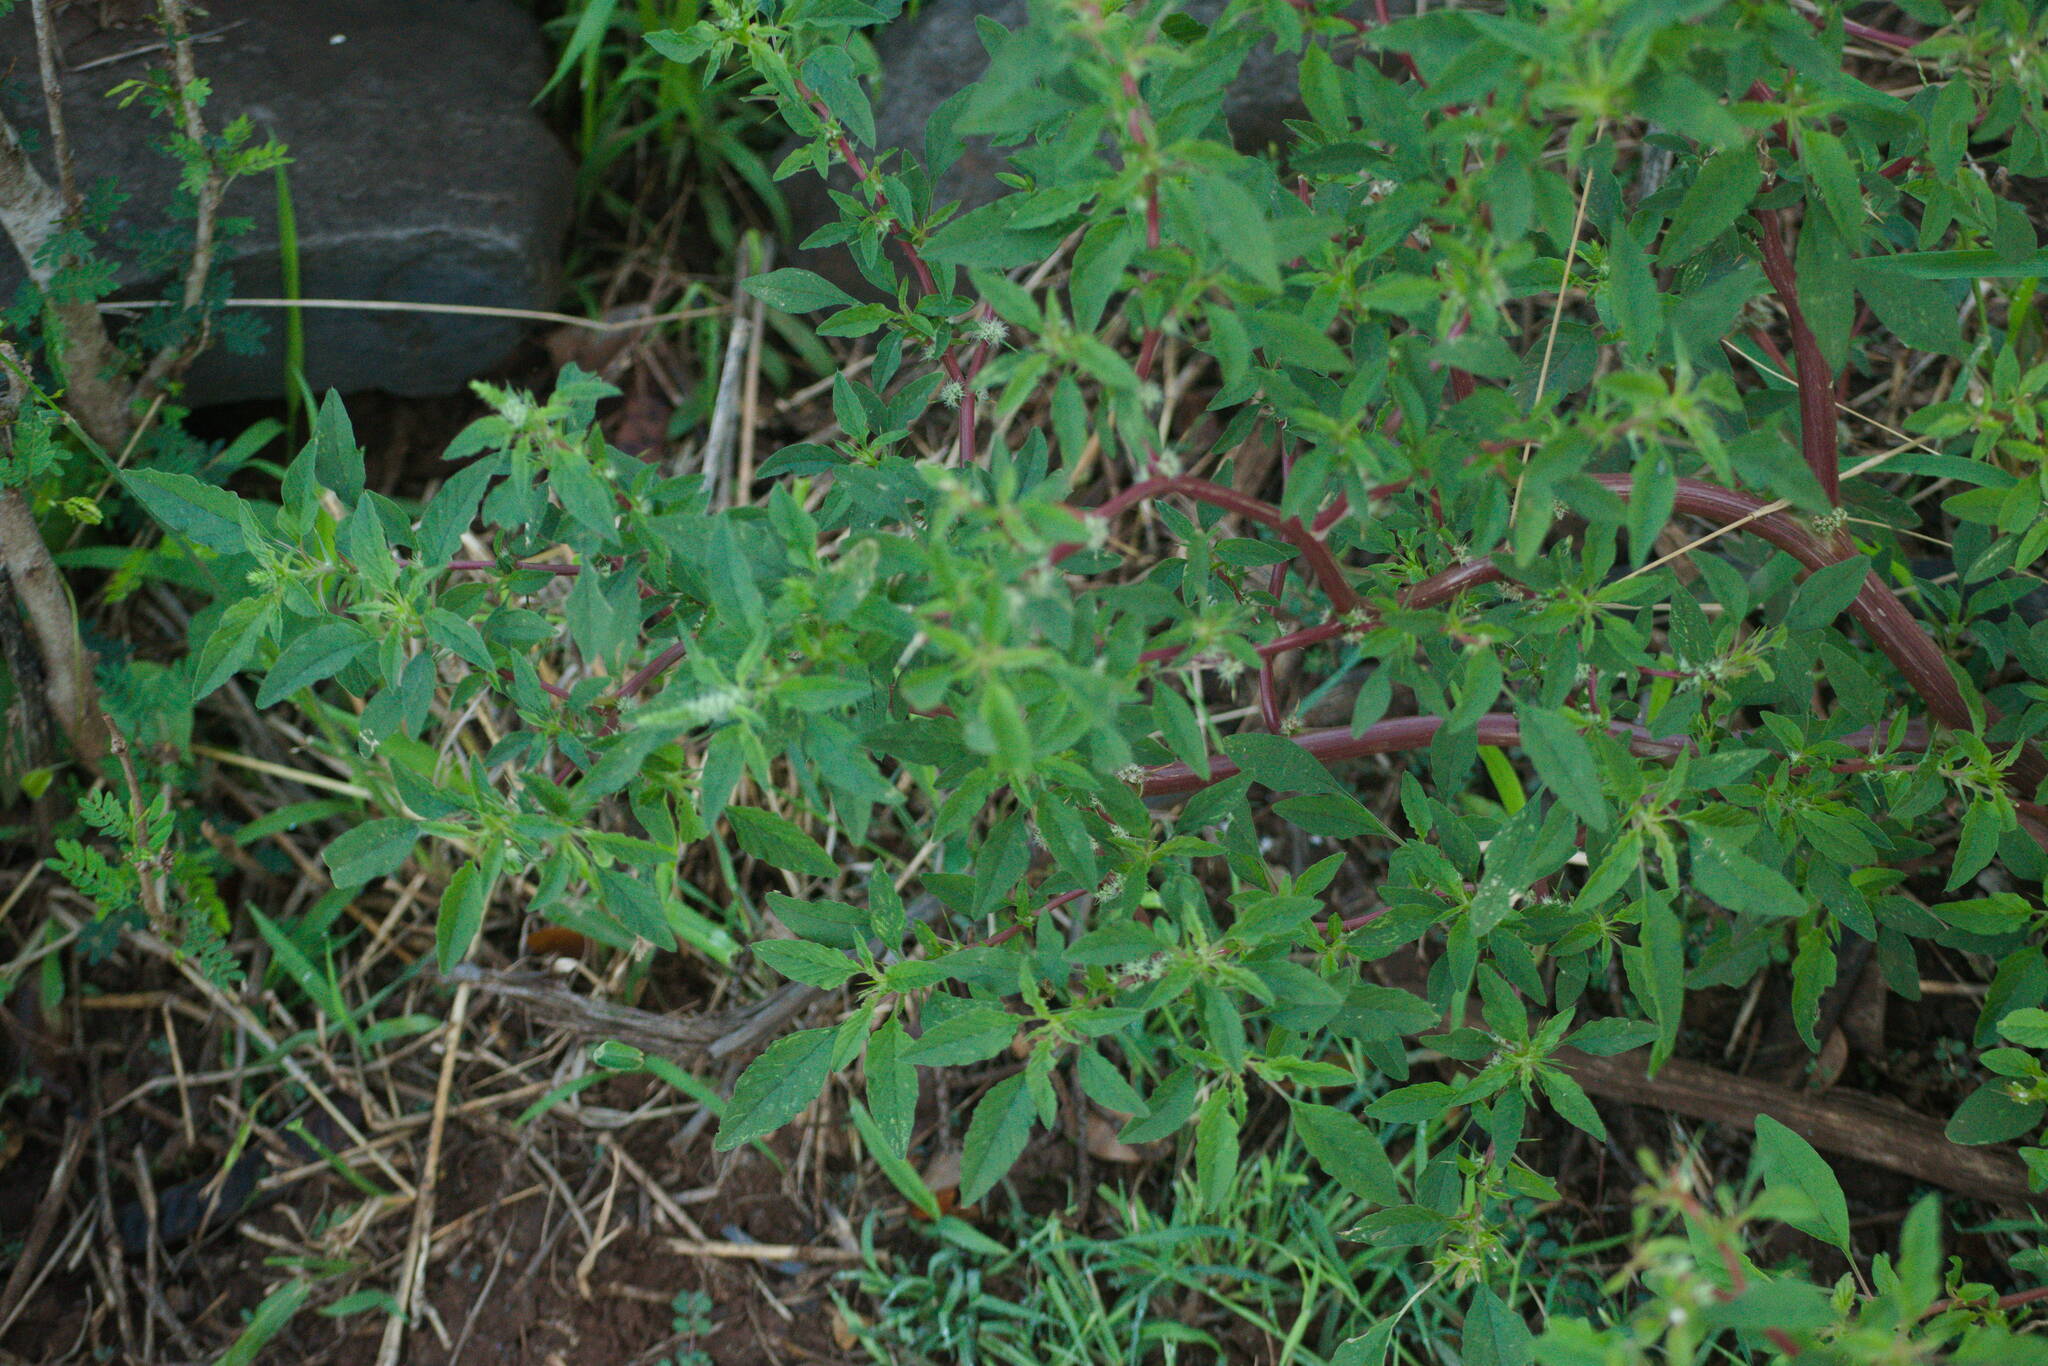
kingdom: Plantae
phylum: Tracheophyta
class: Magnoliopsida
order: Caryophyllales
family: Amaranthaceae
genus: Amaranthus
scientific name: Amaranthus spinosus
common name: Spiny amaranth
